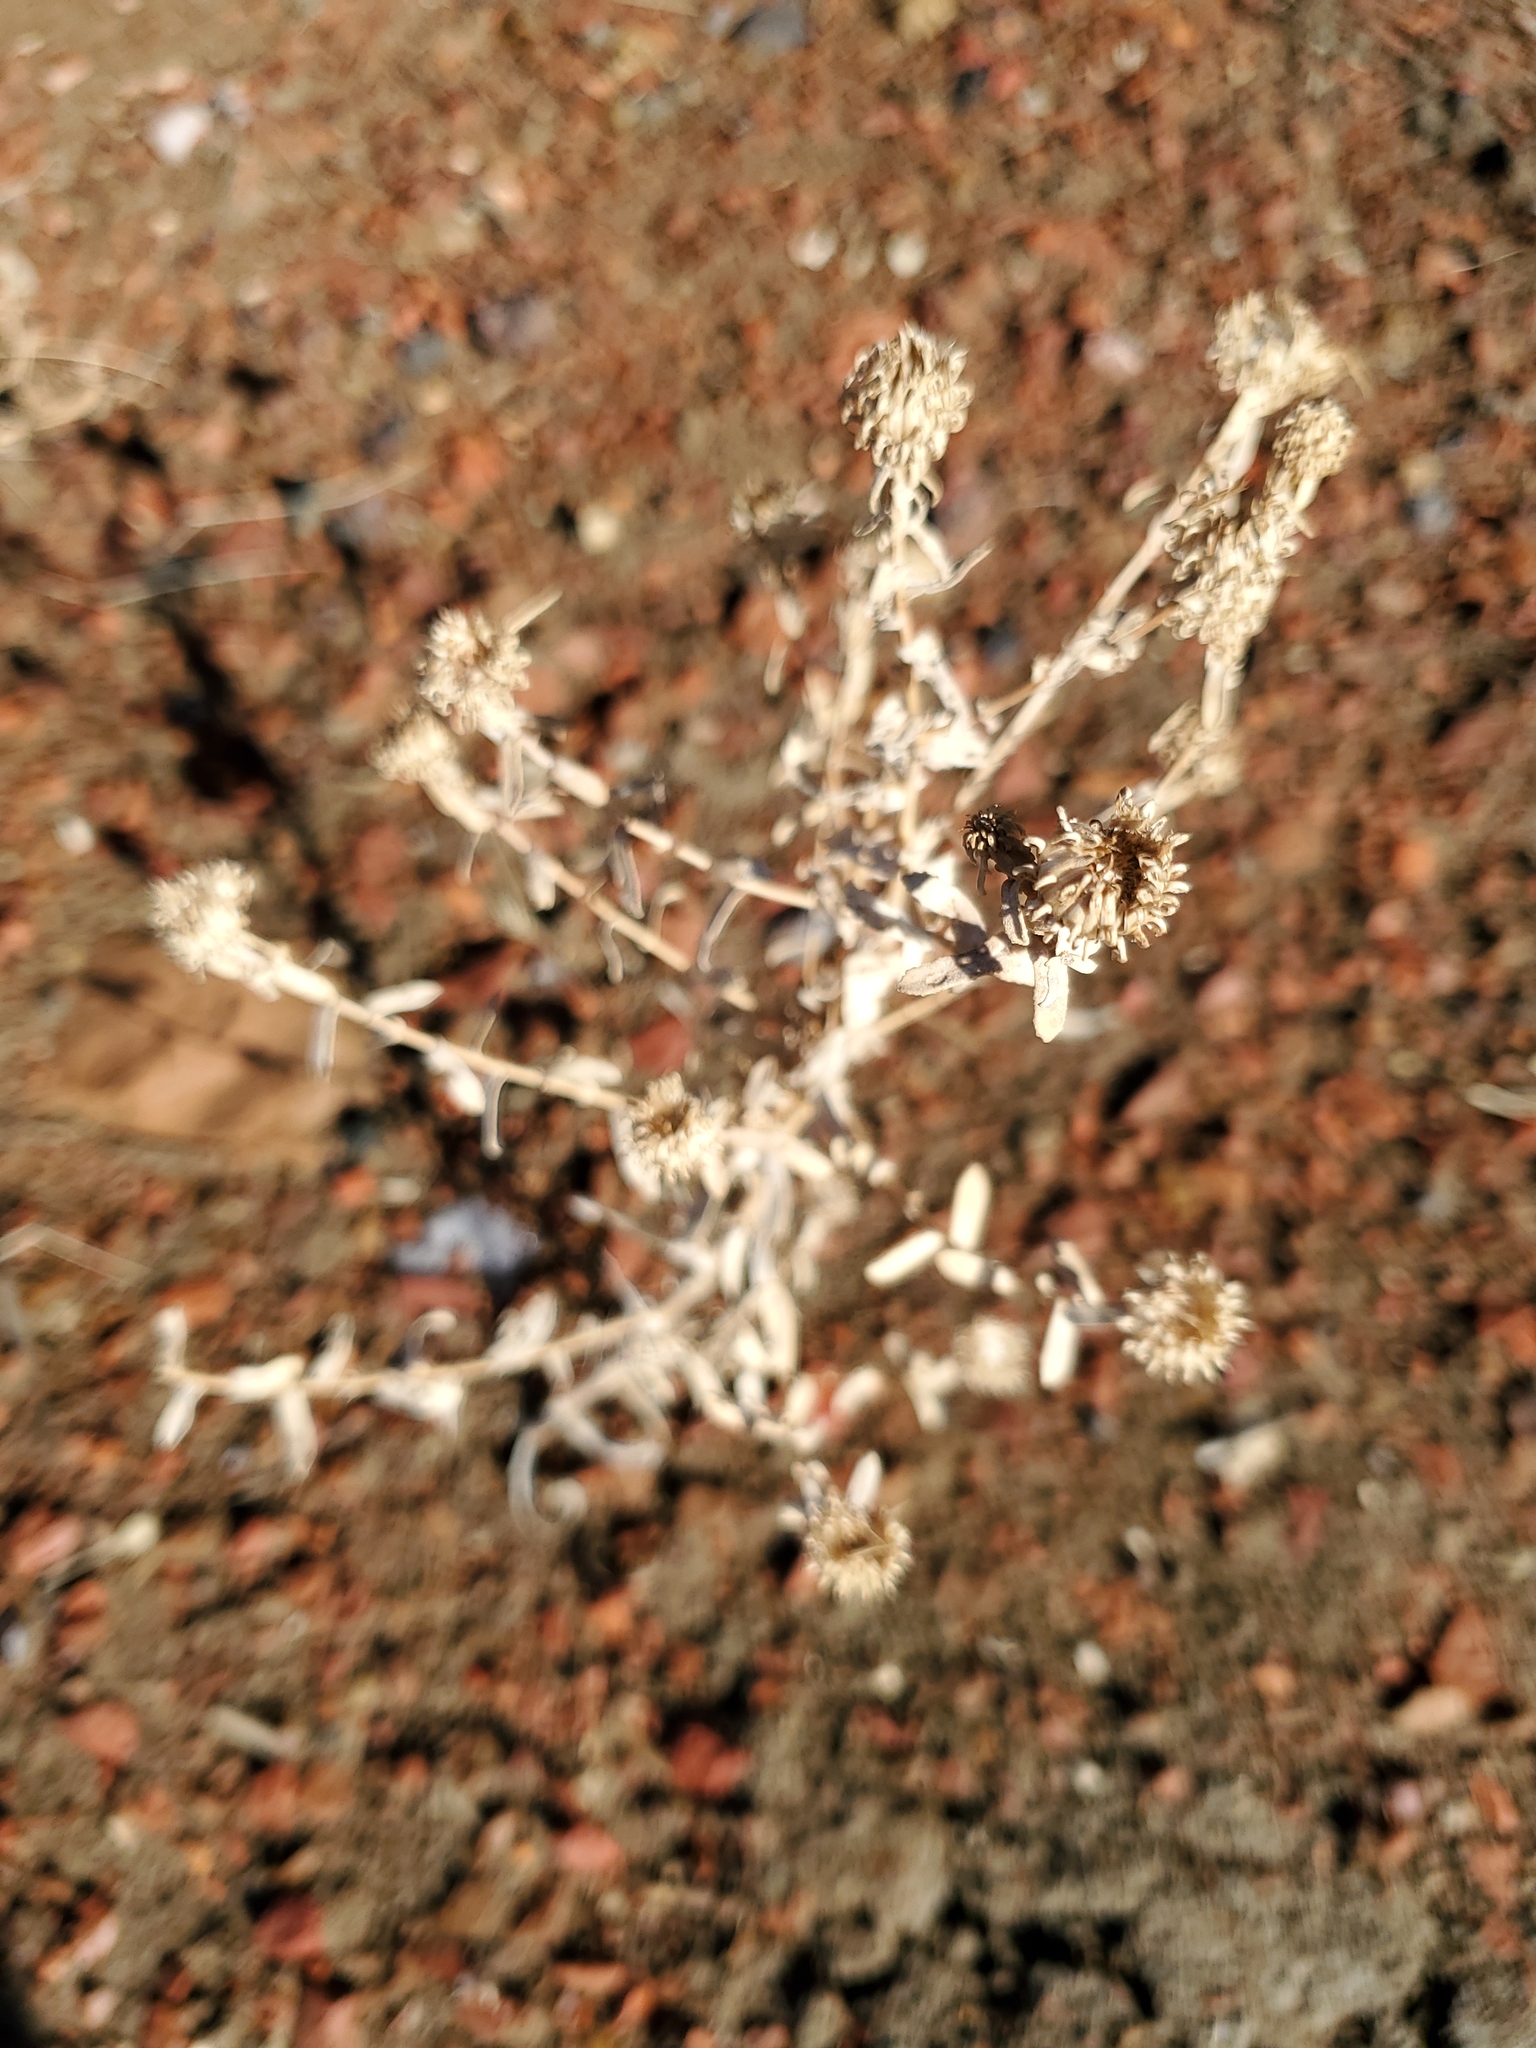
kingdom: Plantae
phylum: Tracheophyta
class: Magnoliopsida
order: Asterales
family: Asteraceae
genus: Grindelia
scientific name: Grindelia squarrosa
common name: Curly-cup gumweed
